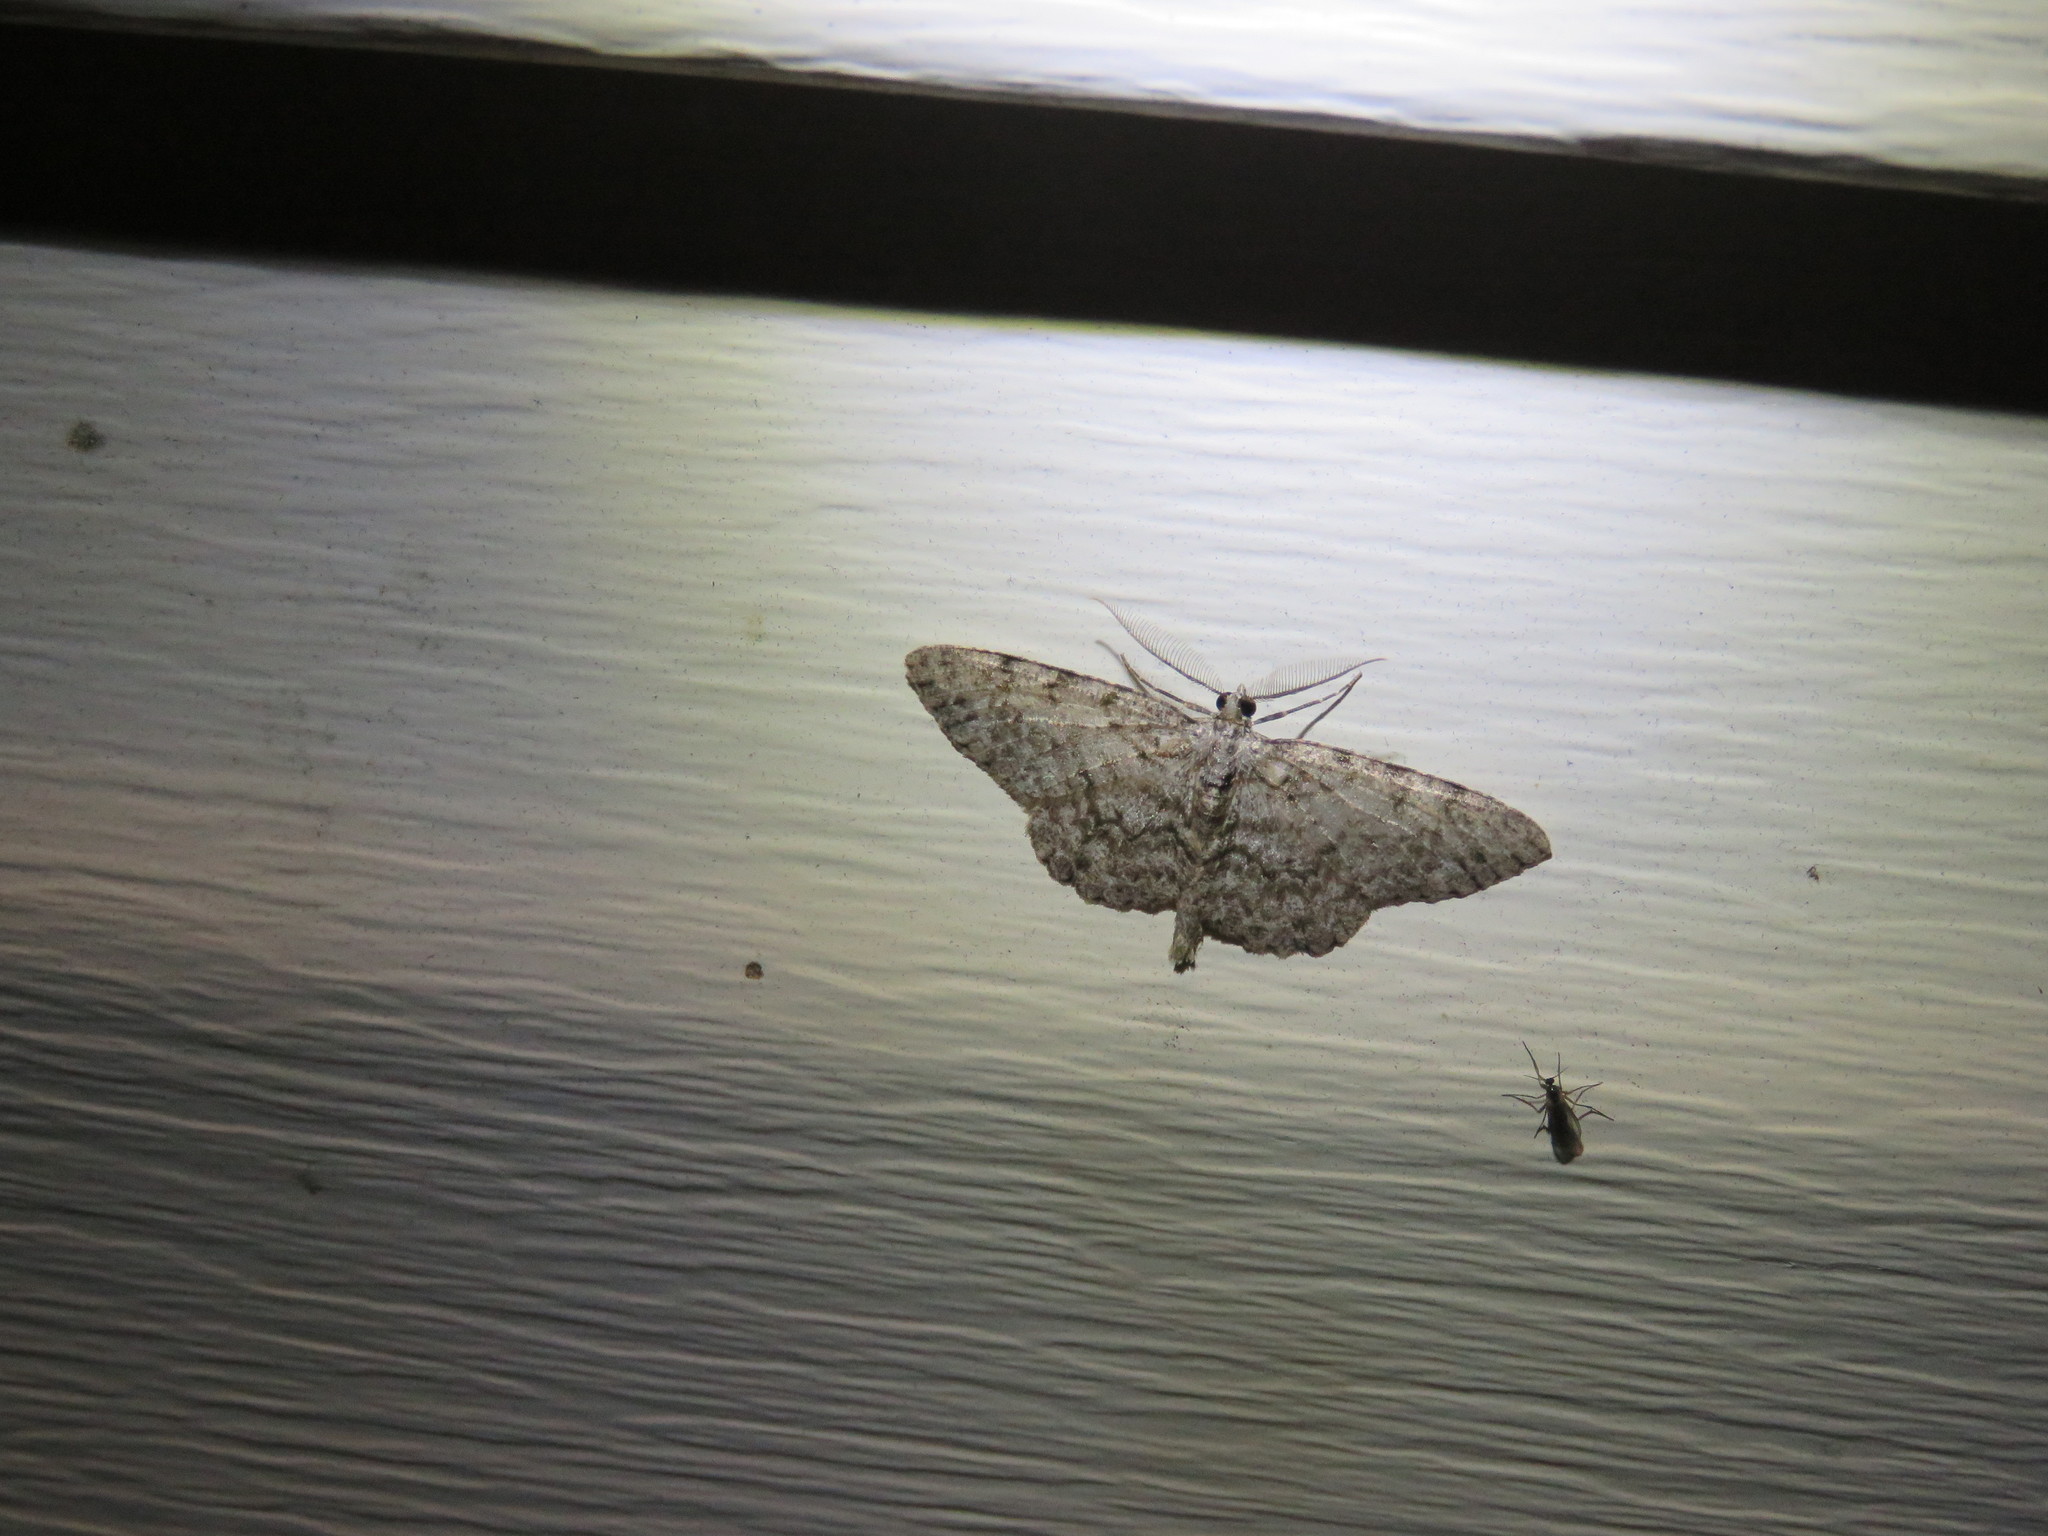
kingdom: Animalia
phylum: Arthropoda
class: Insecta
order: Lepidoptera
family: Geometridae
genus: Protoboarmia
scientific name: Protoboarmia porcelaria
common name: Porcelain gray
